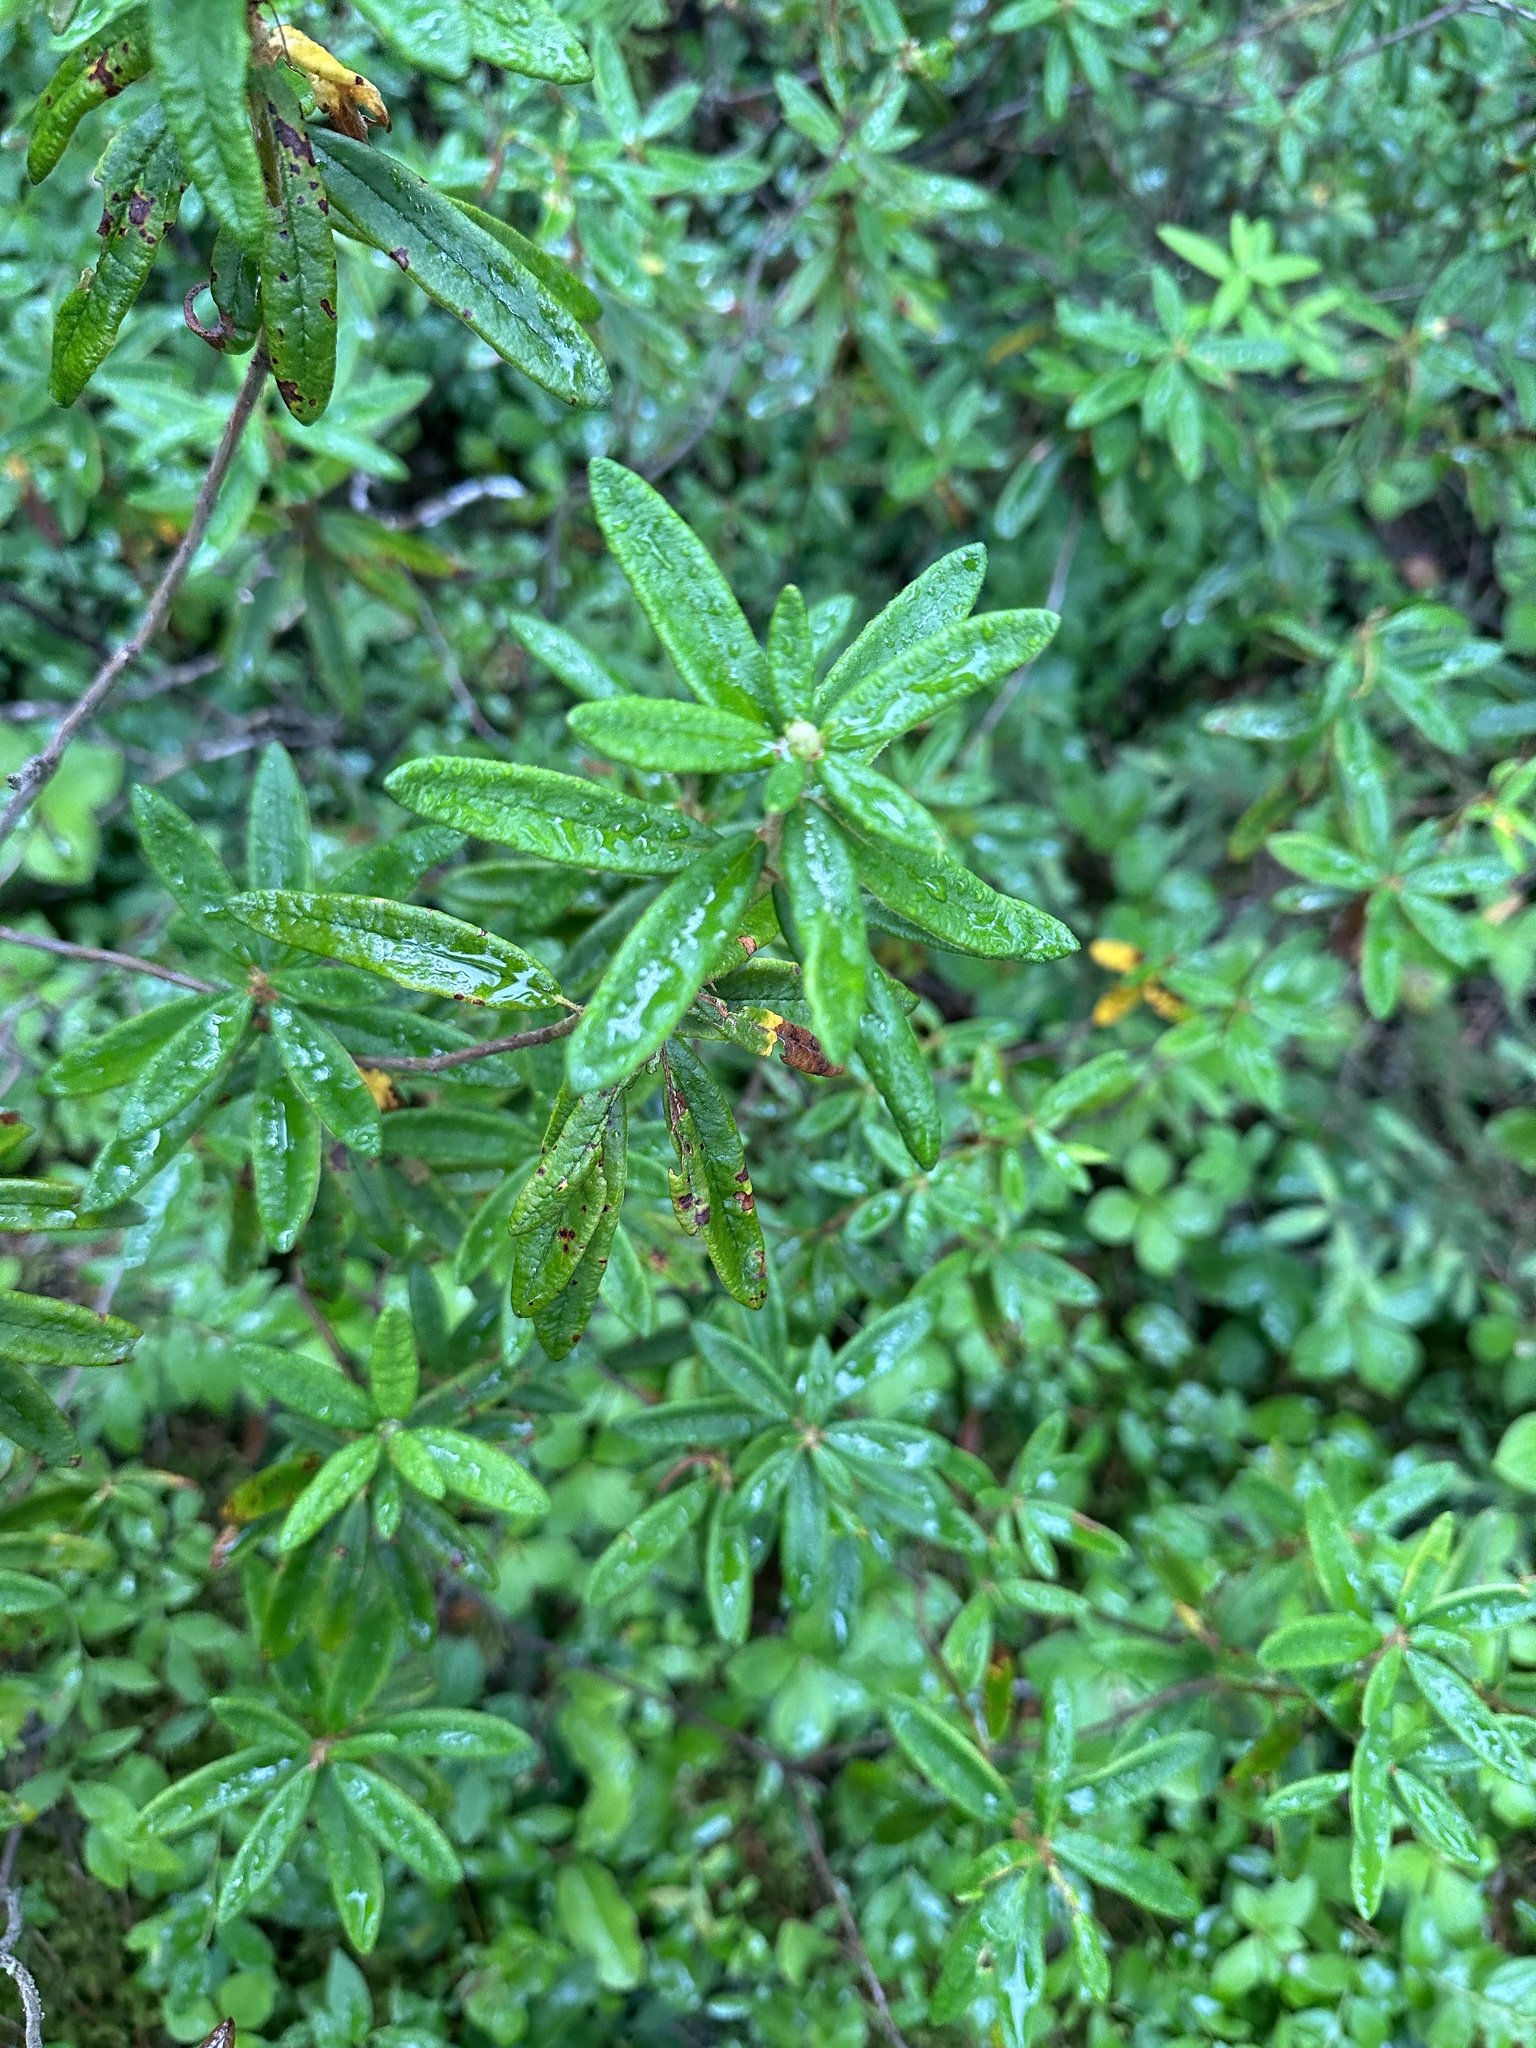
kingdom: Plantae
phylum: Tracheophyta
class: Magnoliopsida
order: Ericales
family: Ericaceae
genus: Rhododendron
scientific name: Rhododendron groenlandicum
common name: Bog labrador tea
